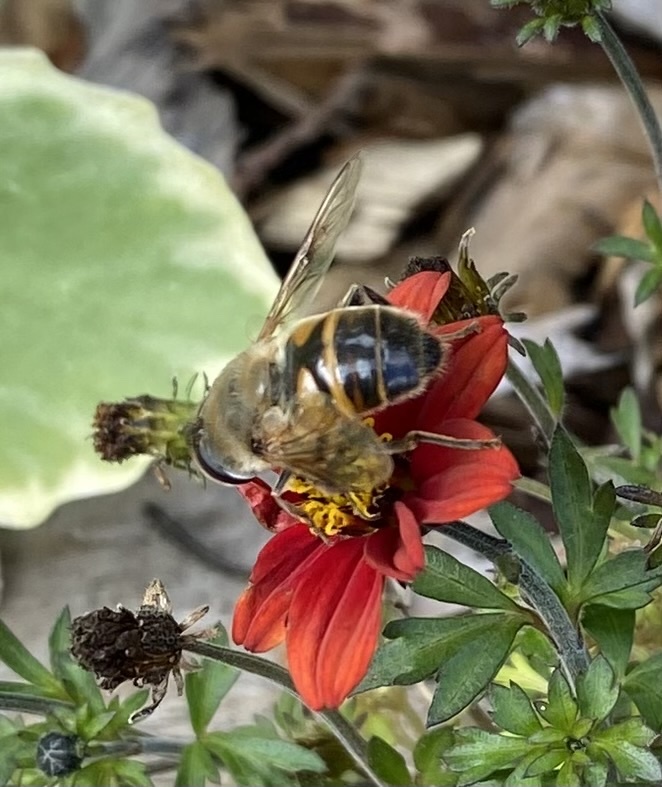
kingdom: Animalia
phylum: Arthropoda
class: Insecta
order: Diptera
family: Syrphidae
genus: Eristalis
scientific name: Eristalis tenax
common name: Drone fly
